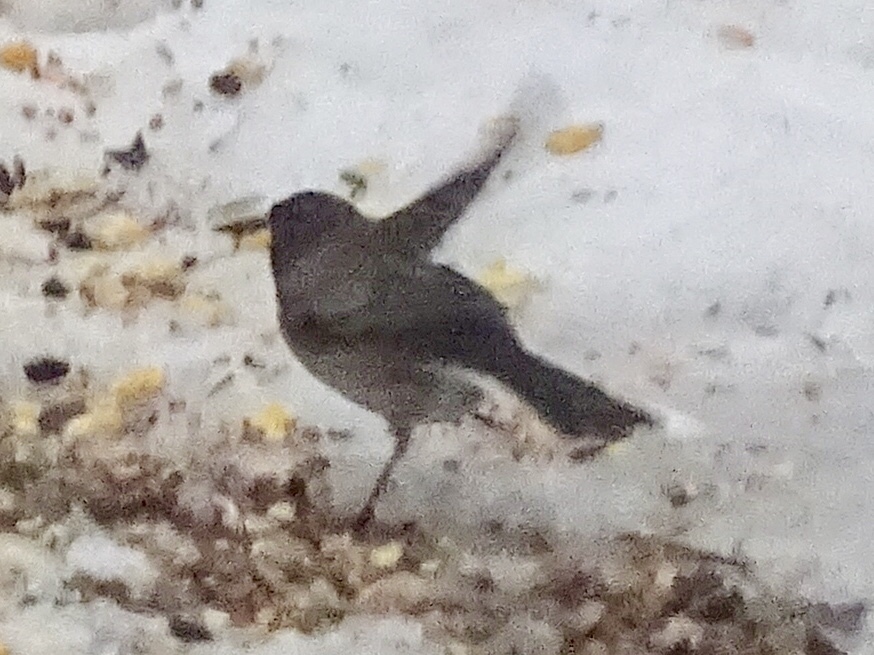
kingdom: Animalia
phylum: Chordata
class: Aves
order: Passeriformes
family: Passerellidae
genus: Junco
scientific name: Junco hyemalis
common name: Dark-eyed junco
